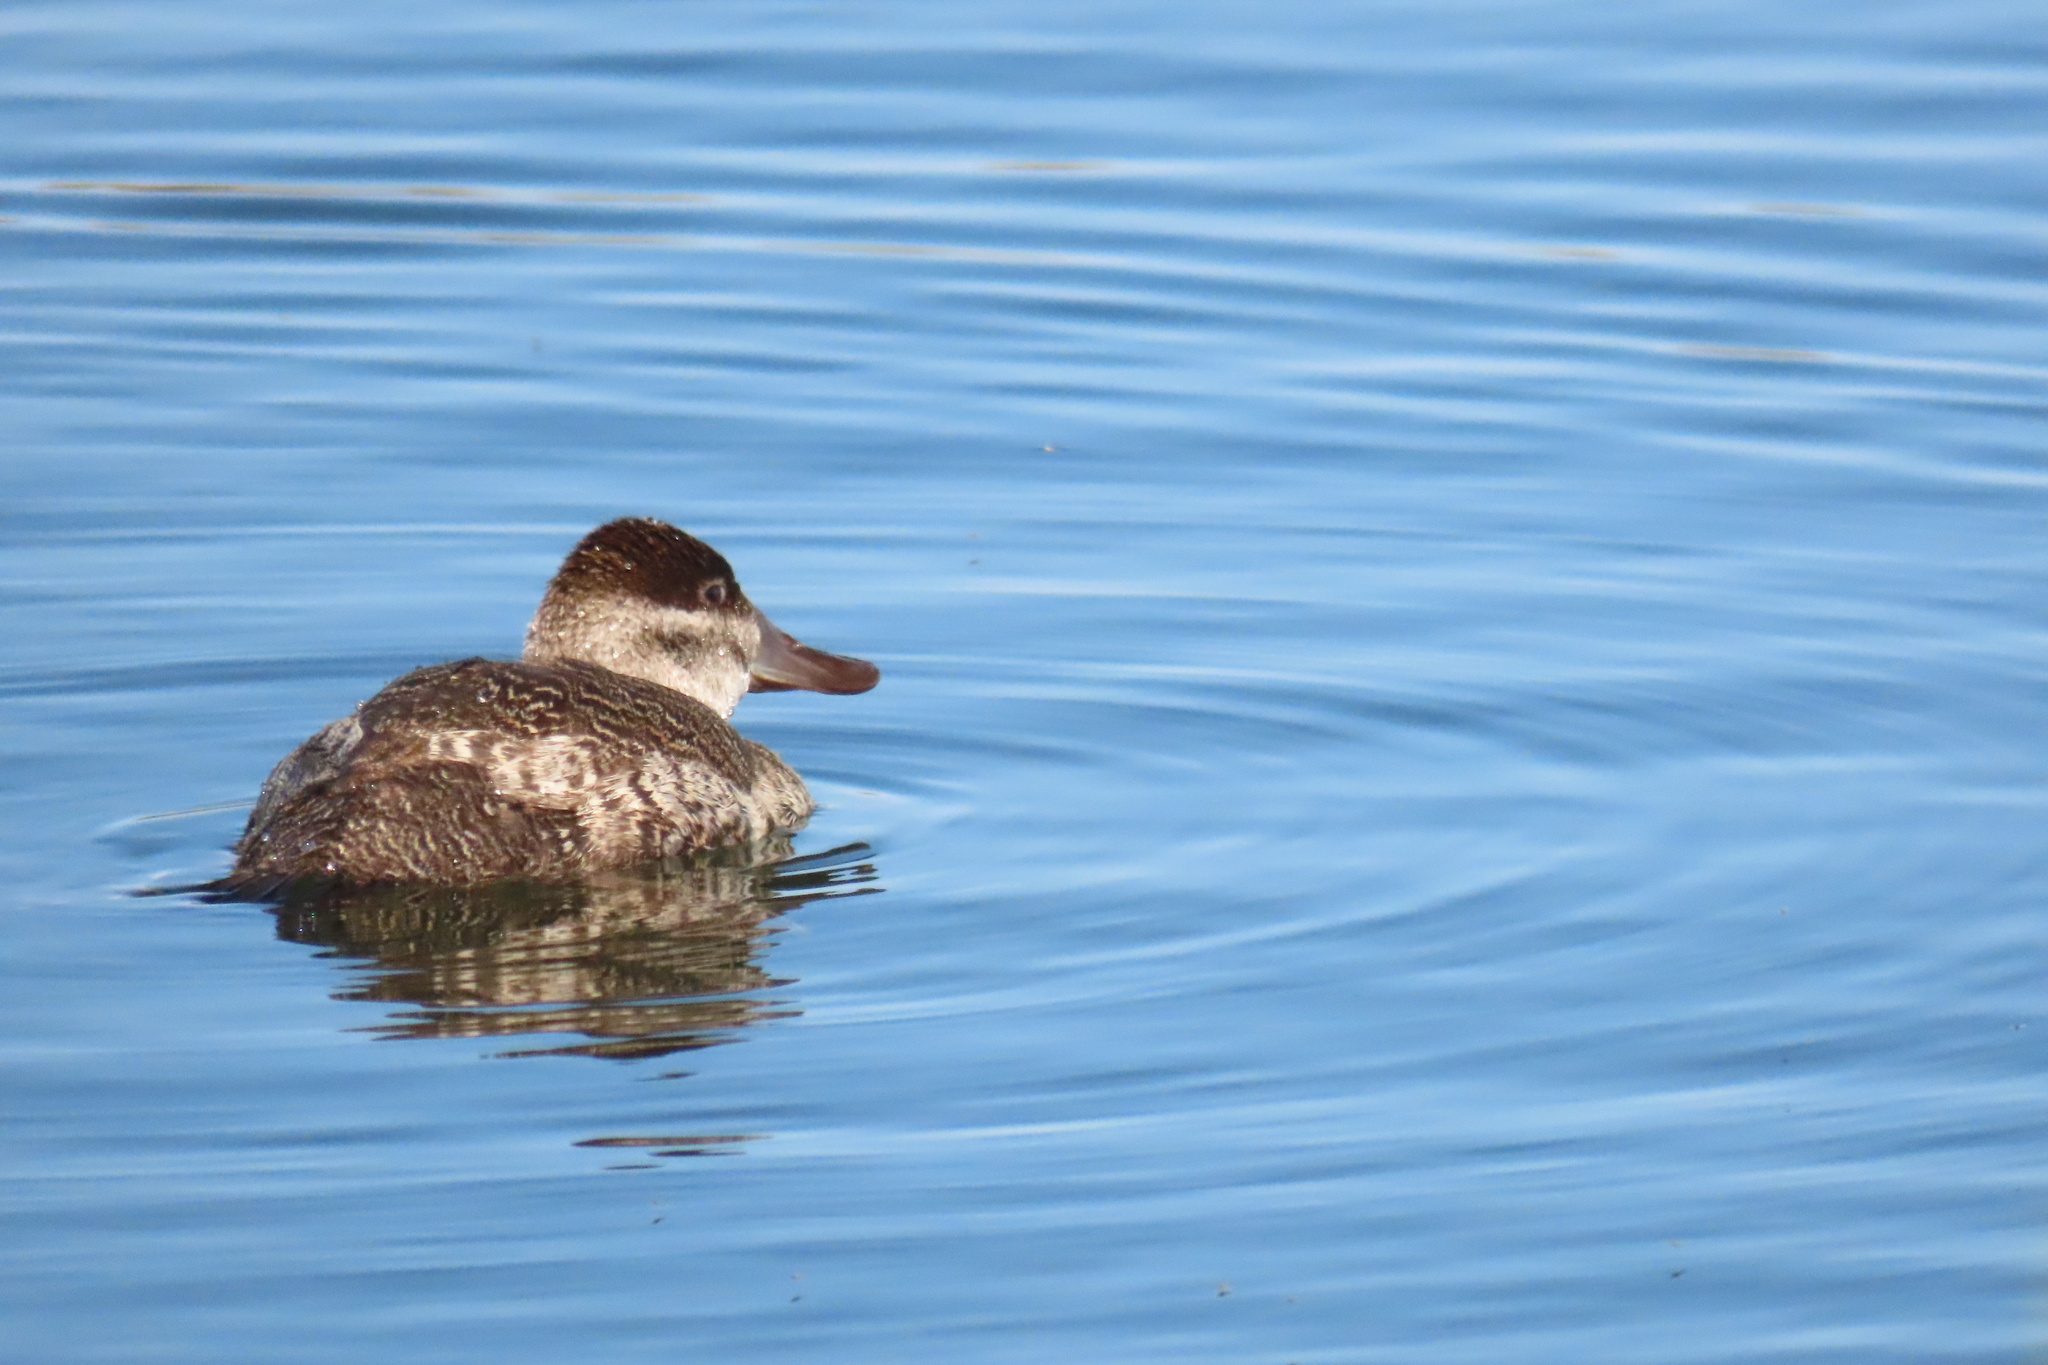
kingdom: Animalia
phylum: Chordata
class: Aves
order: Anseriformes
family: Anatidae
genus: Oxyura
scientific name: Oxyura jamaicensis
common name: Ruddy duck
